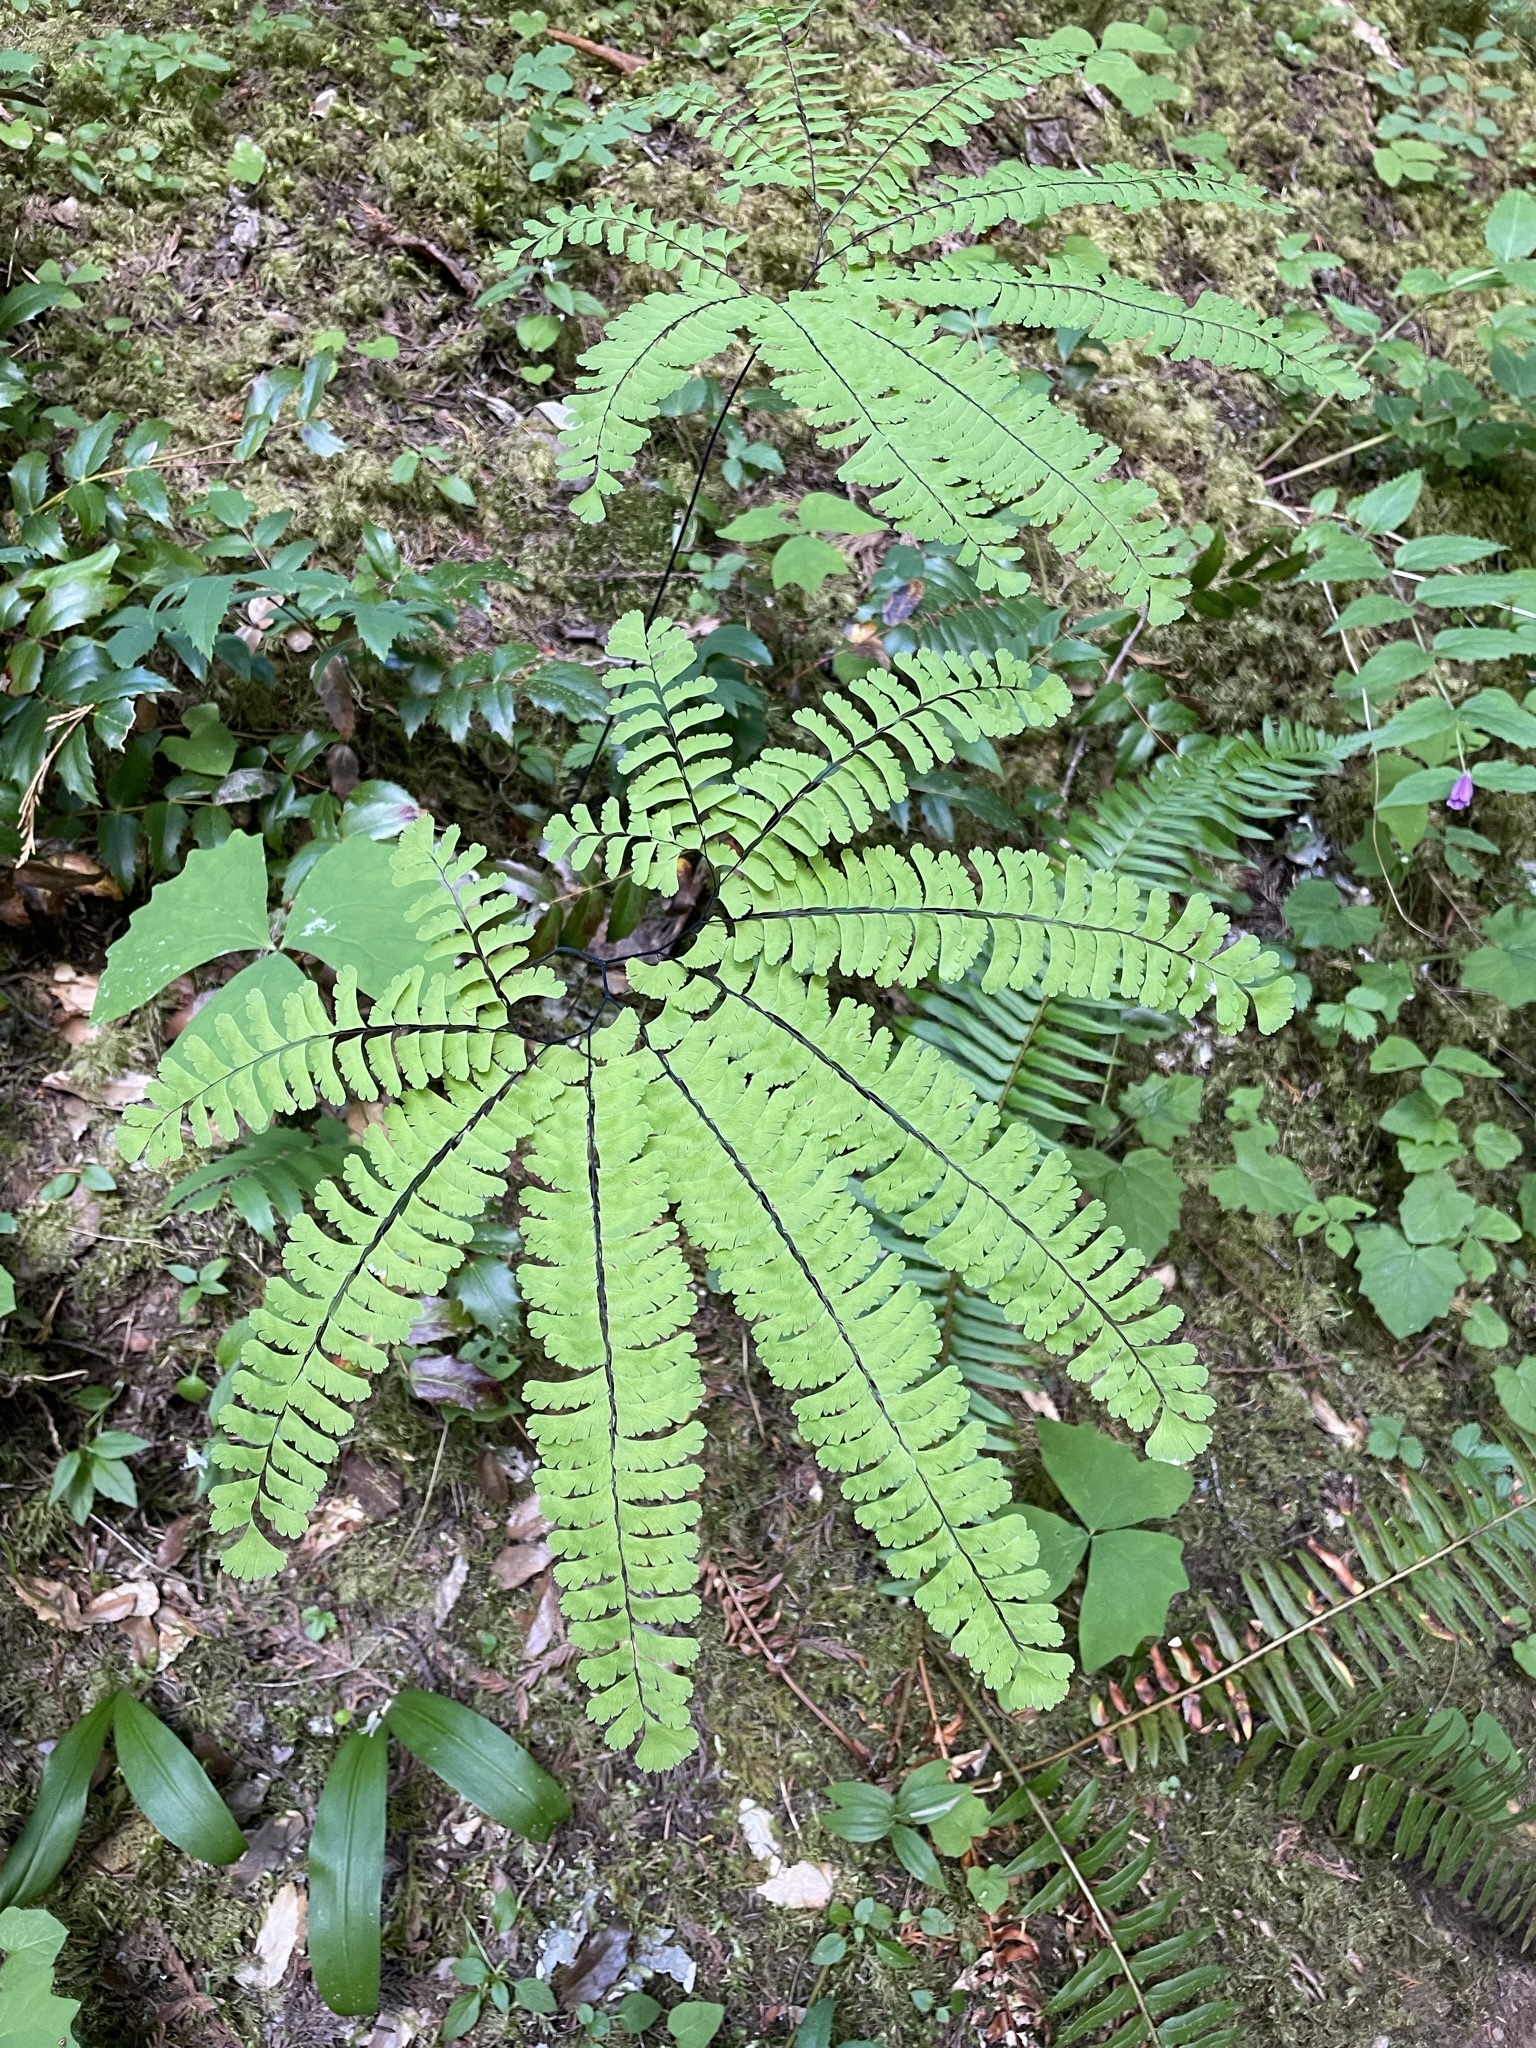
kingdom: Plantae
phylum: Tracheophyta
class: Polypodiopsida
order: Polypodiales
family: Pteridaceae
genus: Adiantum
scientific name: Adiantum aleuticum
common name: Aleutian maidenhair fern
